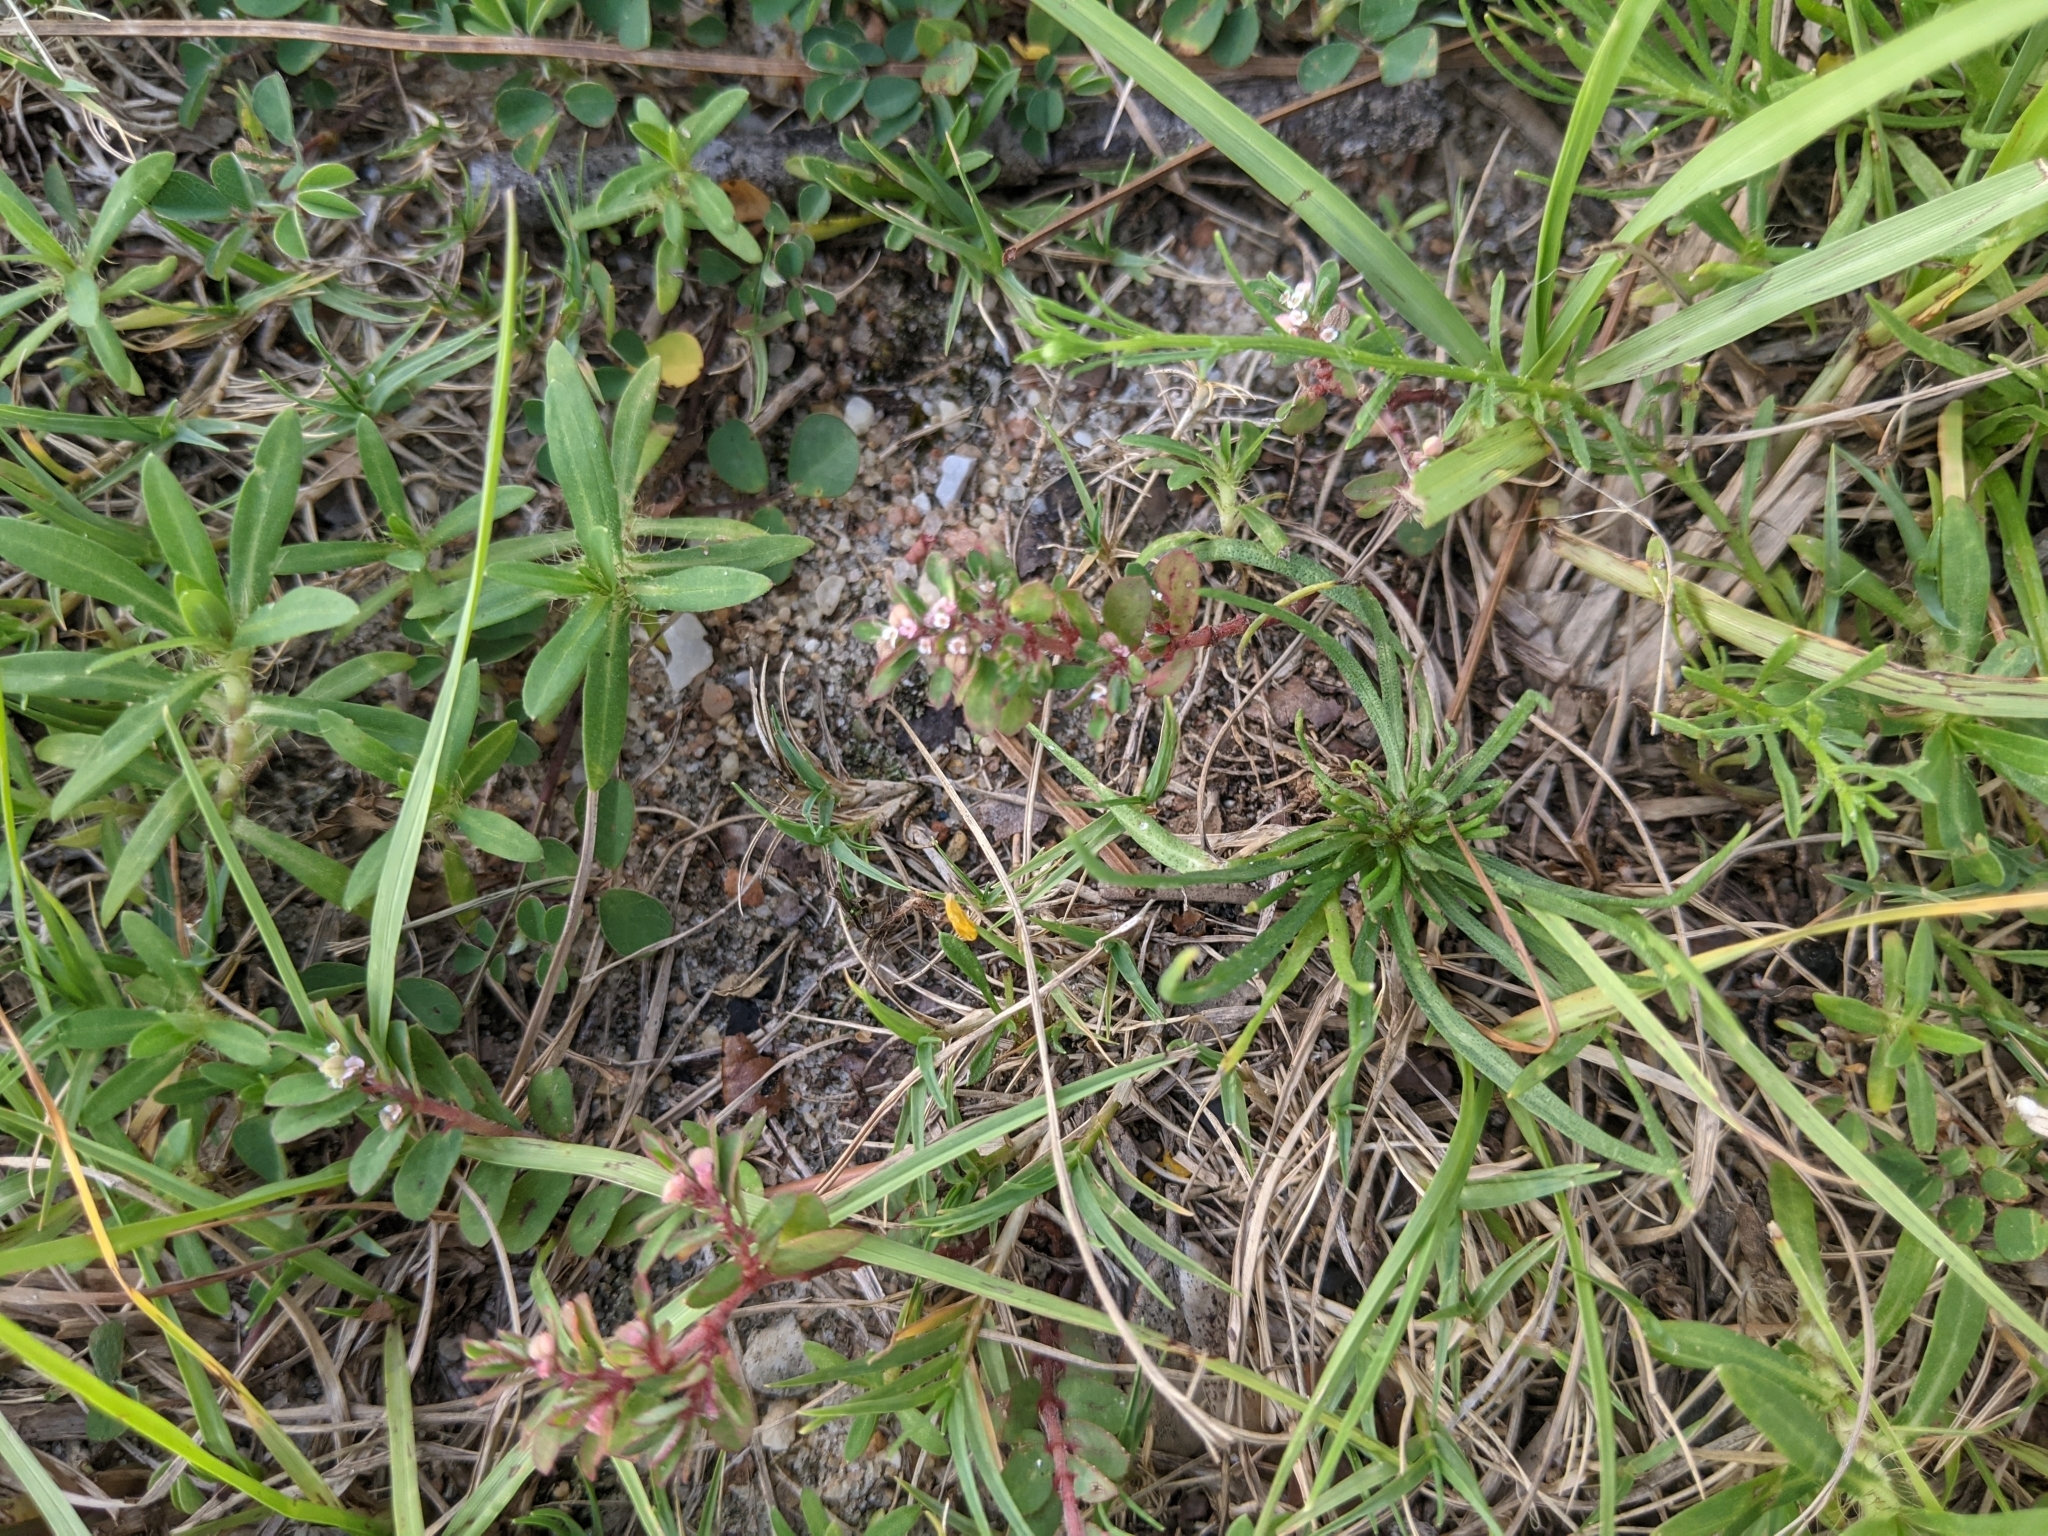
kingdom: Plantae
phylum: Tracheophyta
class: Magnoliopsida
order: Malpighiales
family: Euphorbiaceae
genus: Euphorbia
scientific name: Euphorbia maculata
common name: Spotted spurge
